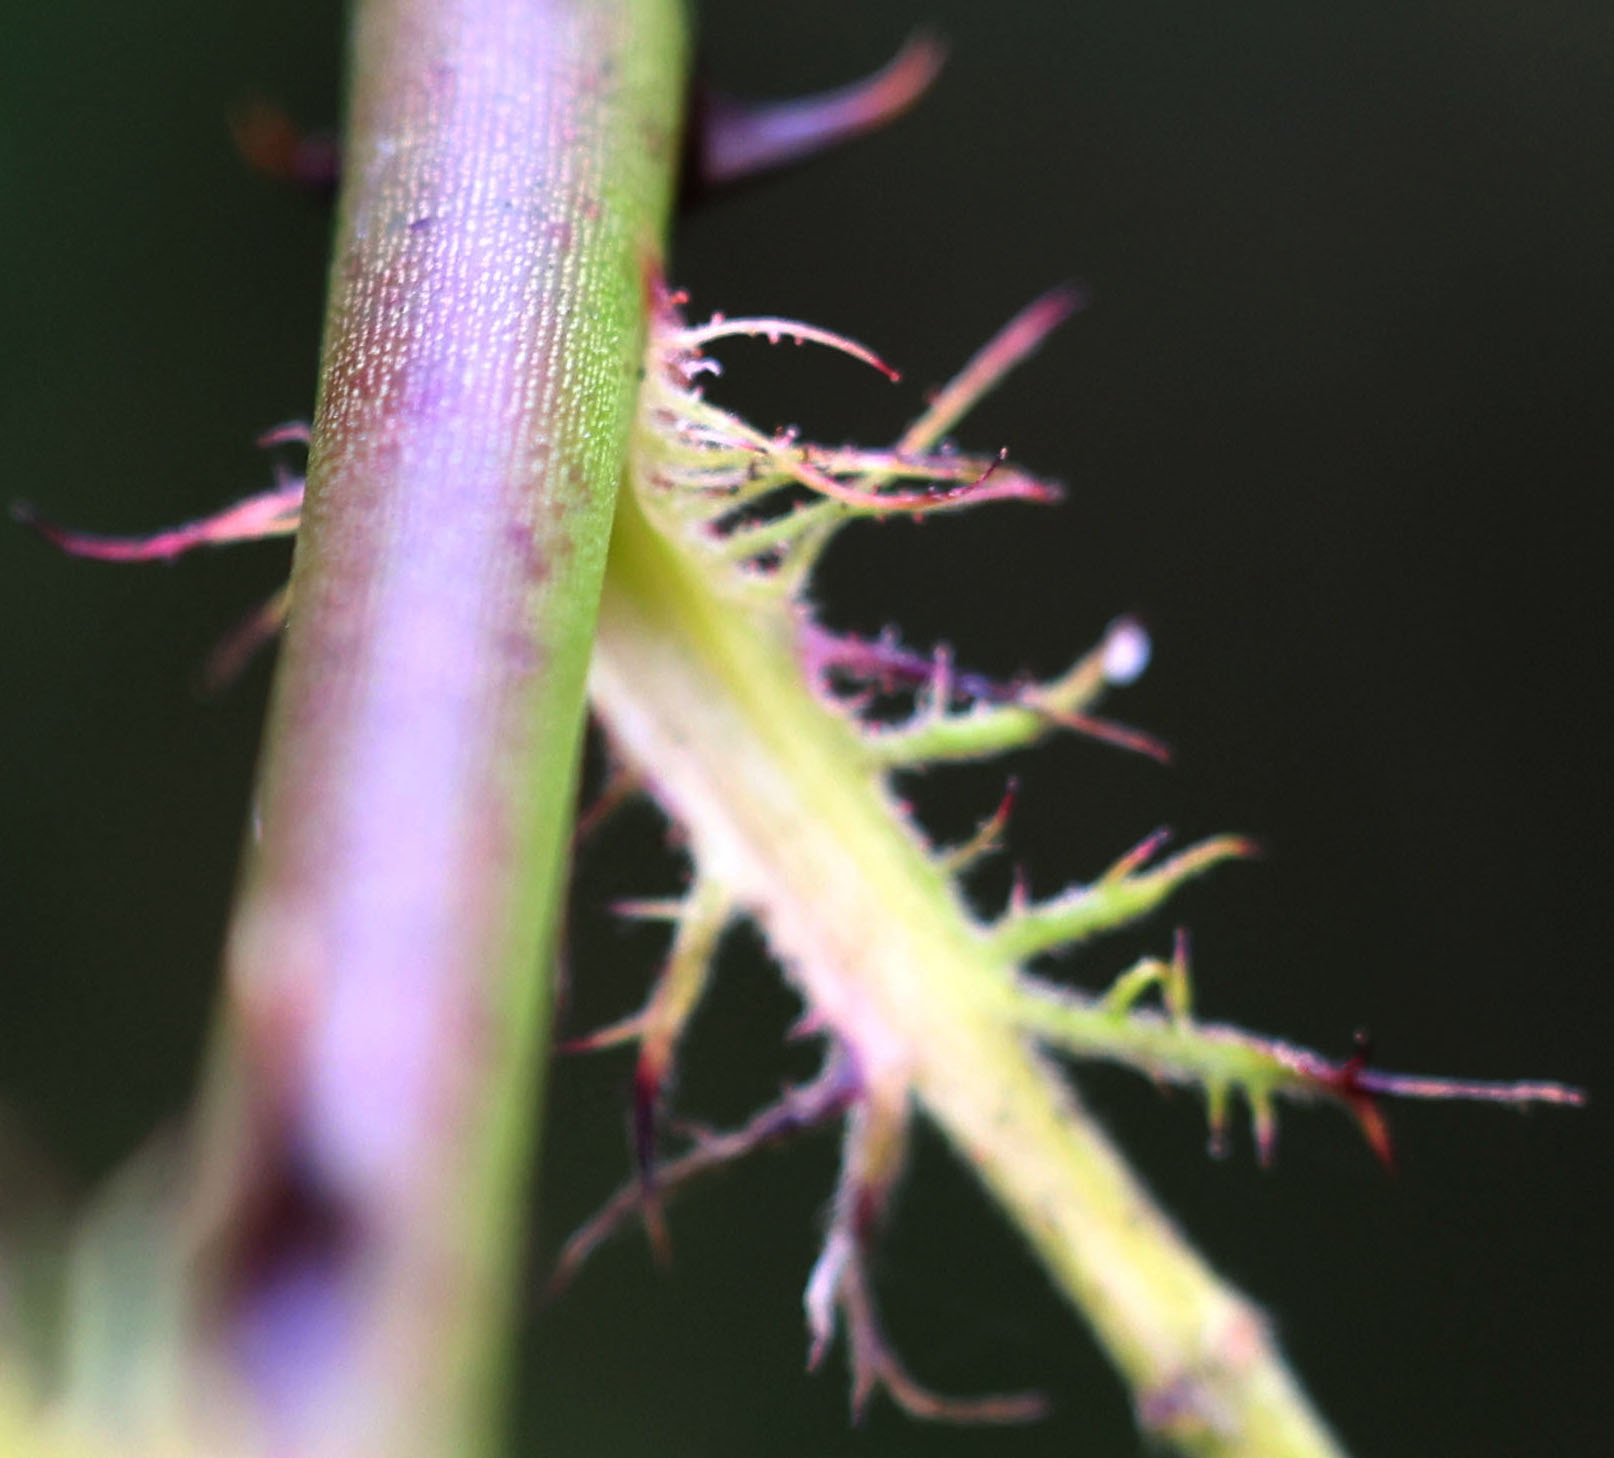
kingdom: Plantae
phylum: Tracheophyta
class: Magnoliopsida
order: Rosales
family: Rosaceae
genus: Rosa
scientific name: Rosa multiflora
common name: Multiflora rose
